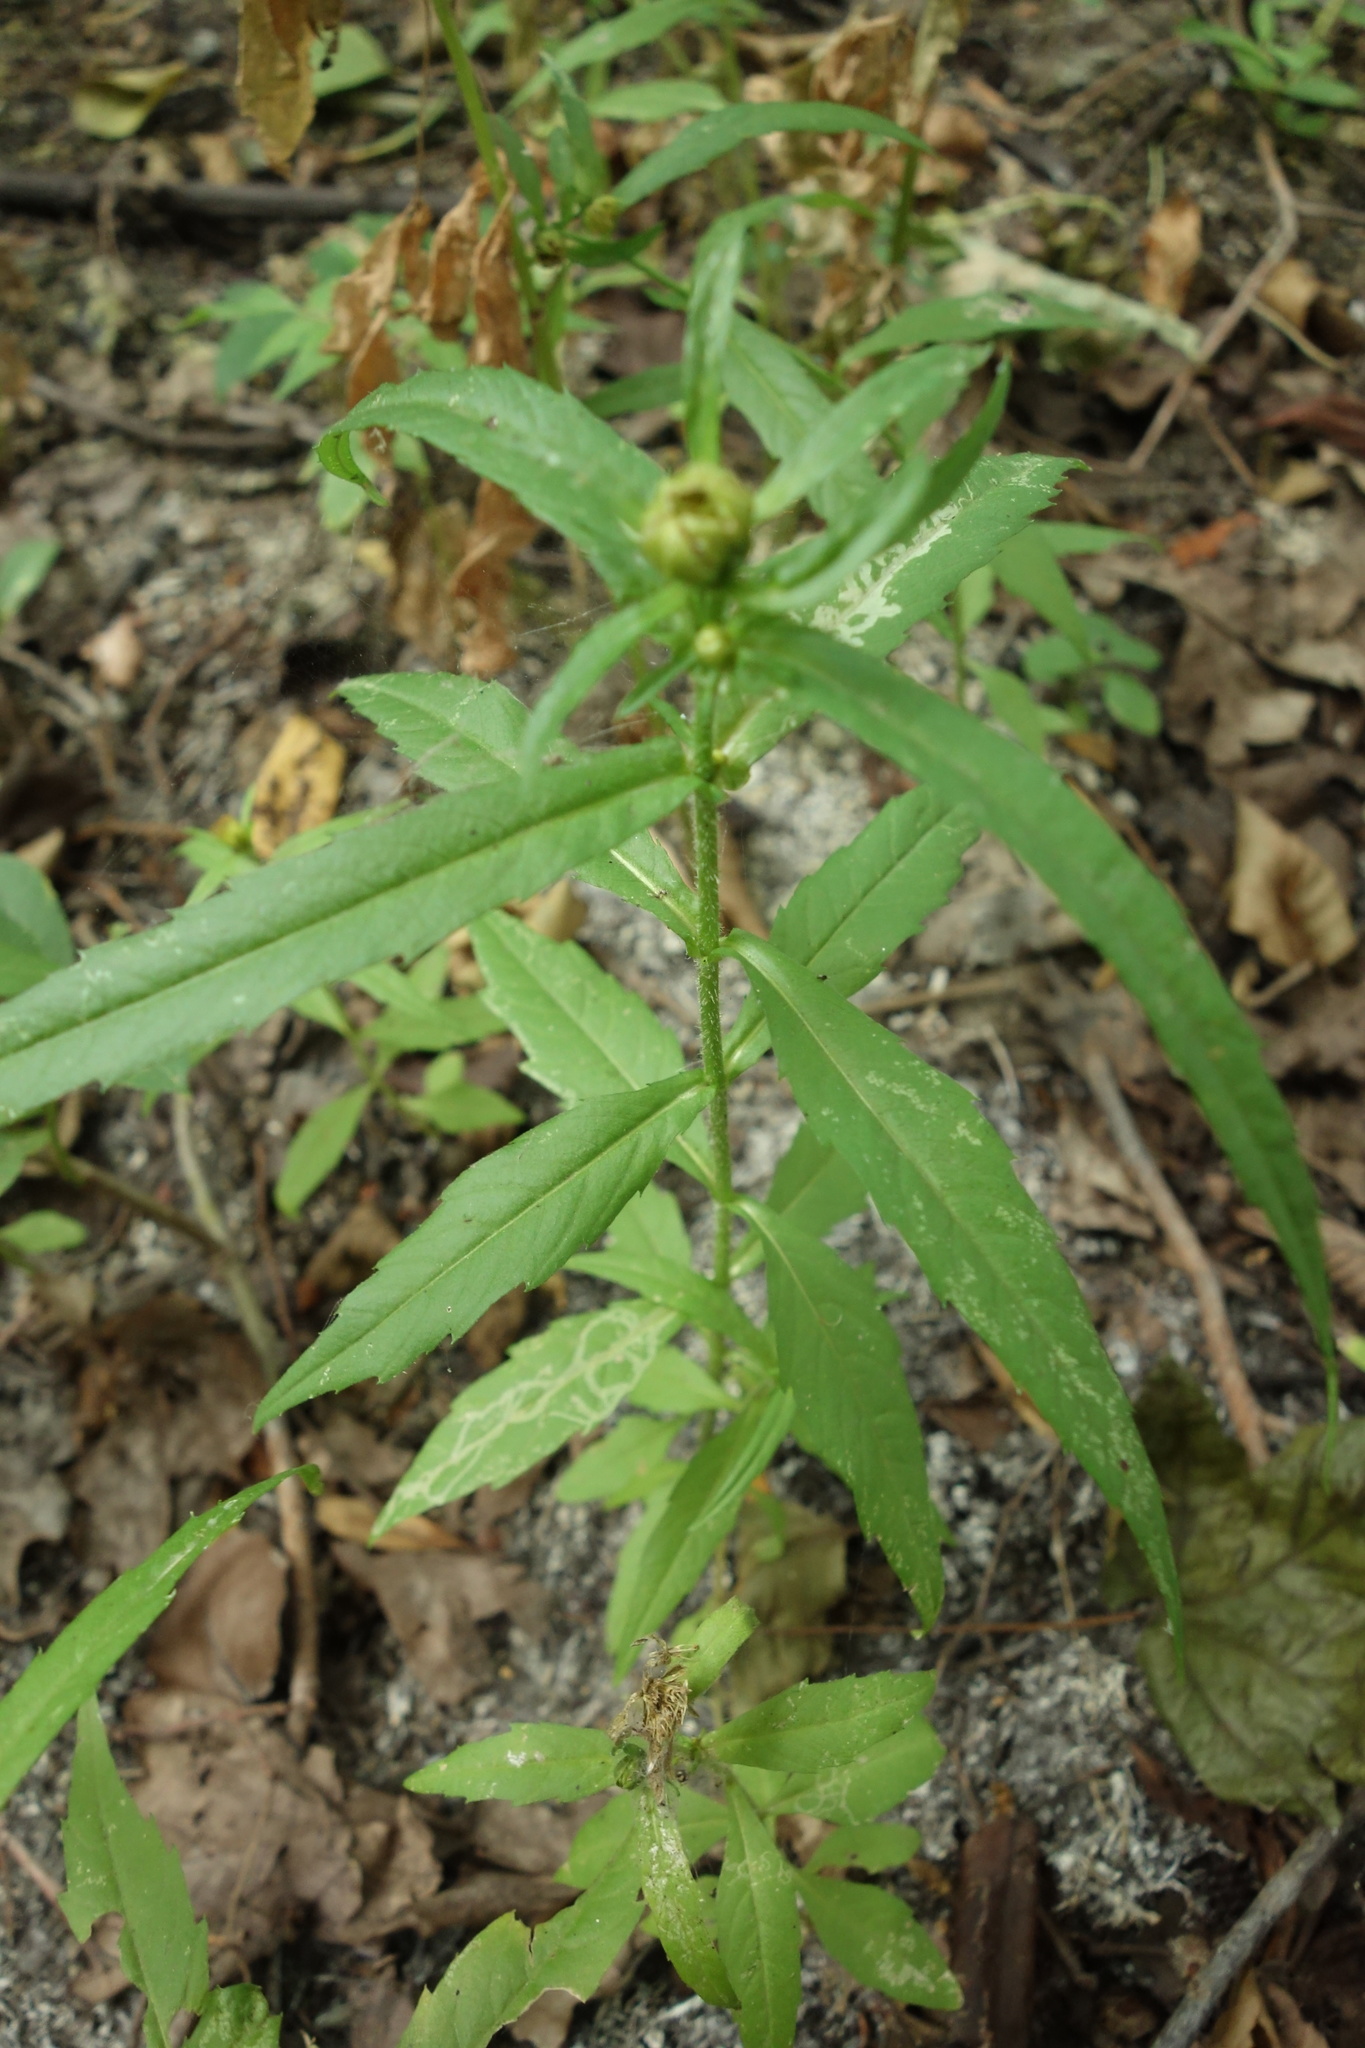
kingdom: Plantae
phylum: Tracheophyta
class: Magnoliopsida
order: Asterales
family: Asteraceae
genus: Bidens
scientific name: Bidens cernua
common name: Nodding bur-marigold
